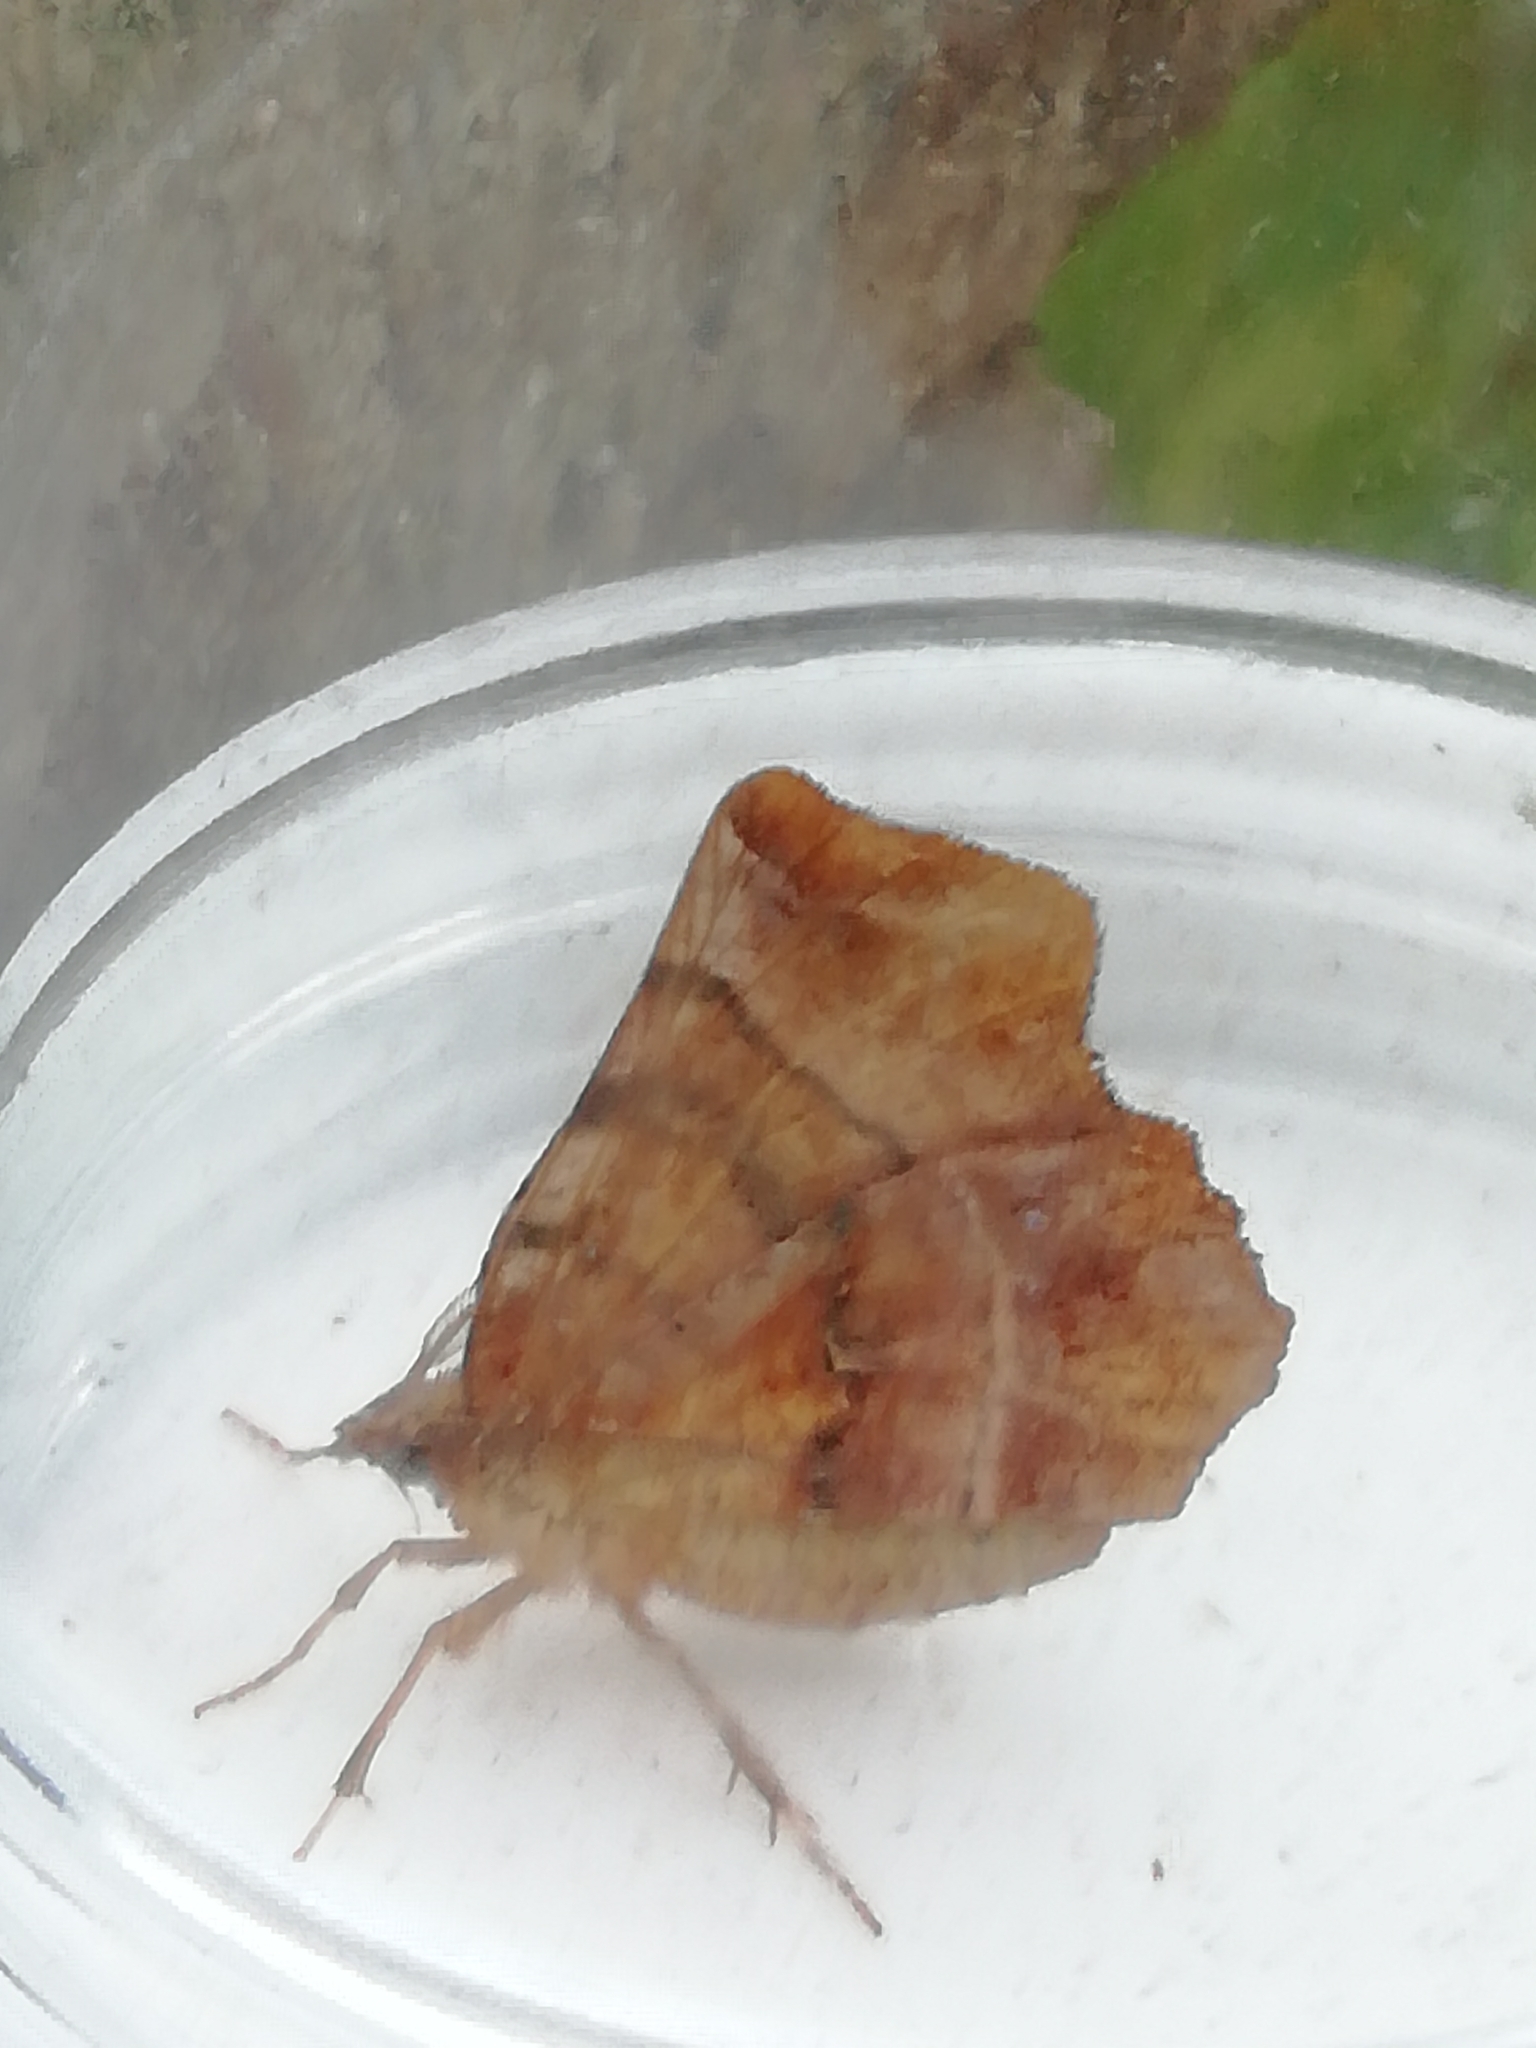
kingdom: Animalia
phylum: Arthropoda
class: Insecta
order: Lepidoptera
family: Geometridae
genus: Selenia
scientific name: Selenia dentaria
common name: Early thorn
